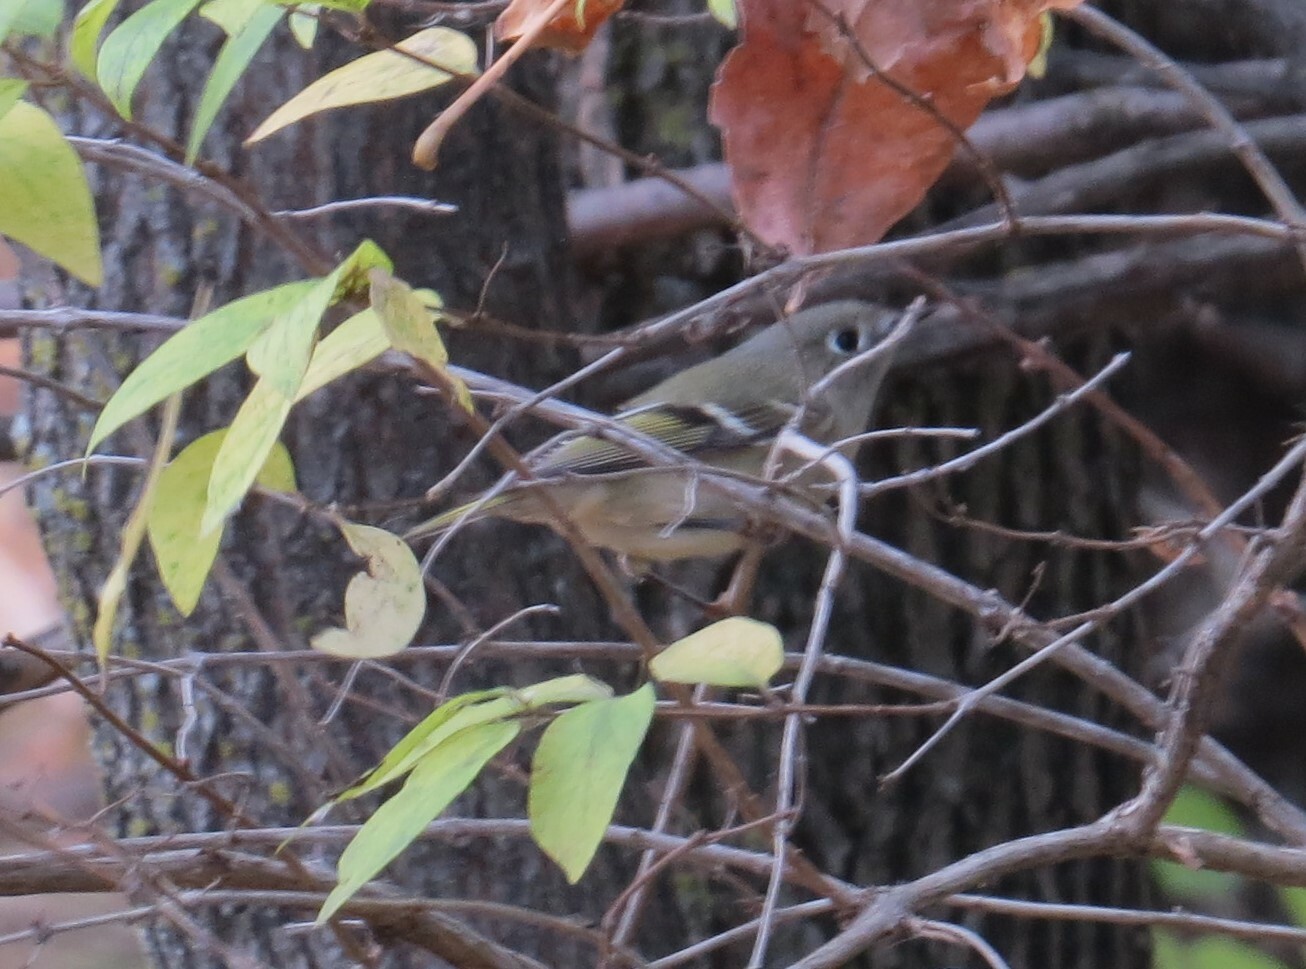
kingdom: Animalia
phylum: Chordata
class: Aves
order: Passeriformes
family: Regulidae
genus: Regulus
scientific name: Regulus calendula
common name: Ruby-crowned kinglet
